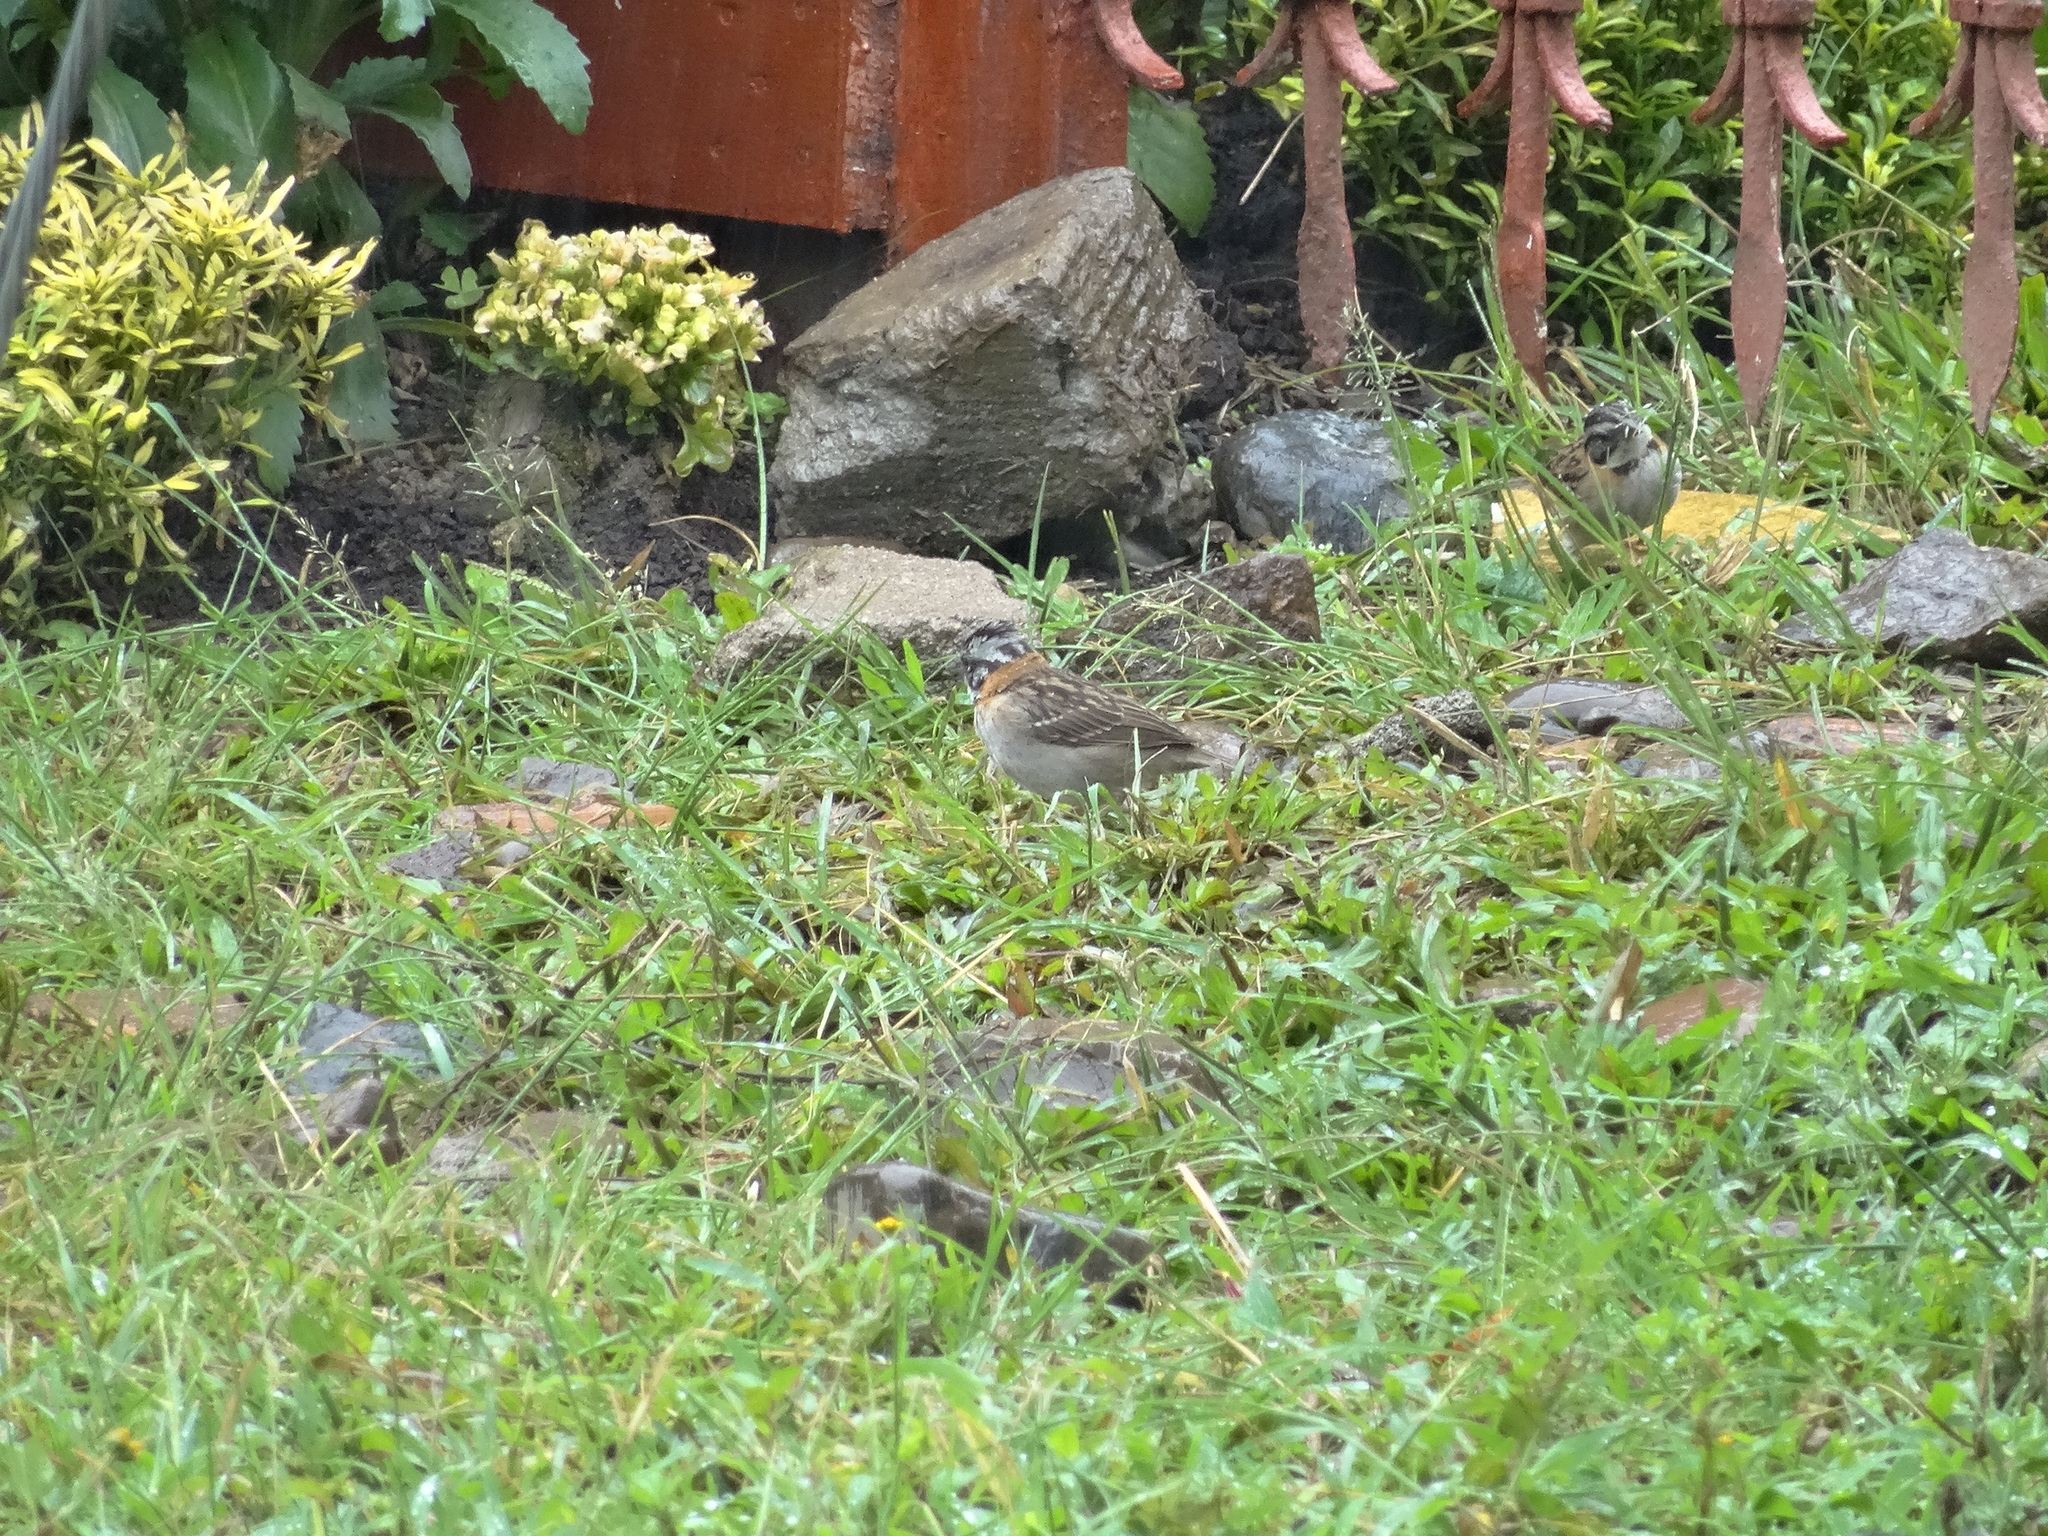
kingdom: Animalia
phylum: Chordata
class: Aves
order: Passeriformes
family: Passerellidae
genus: Zonotrichia
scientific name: Zonotrichia capensis
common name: Rufous-collared sparrow
